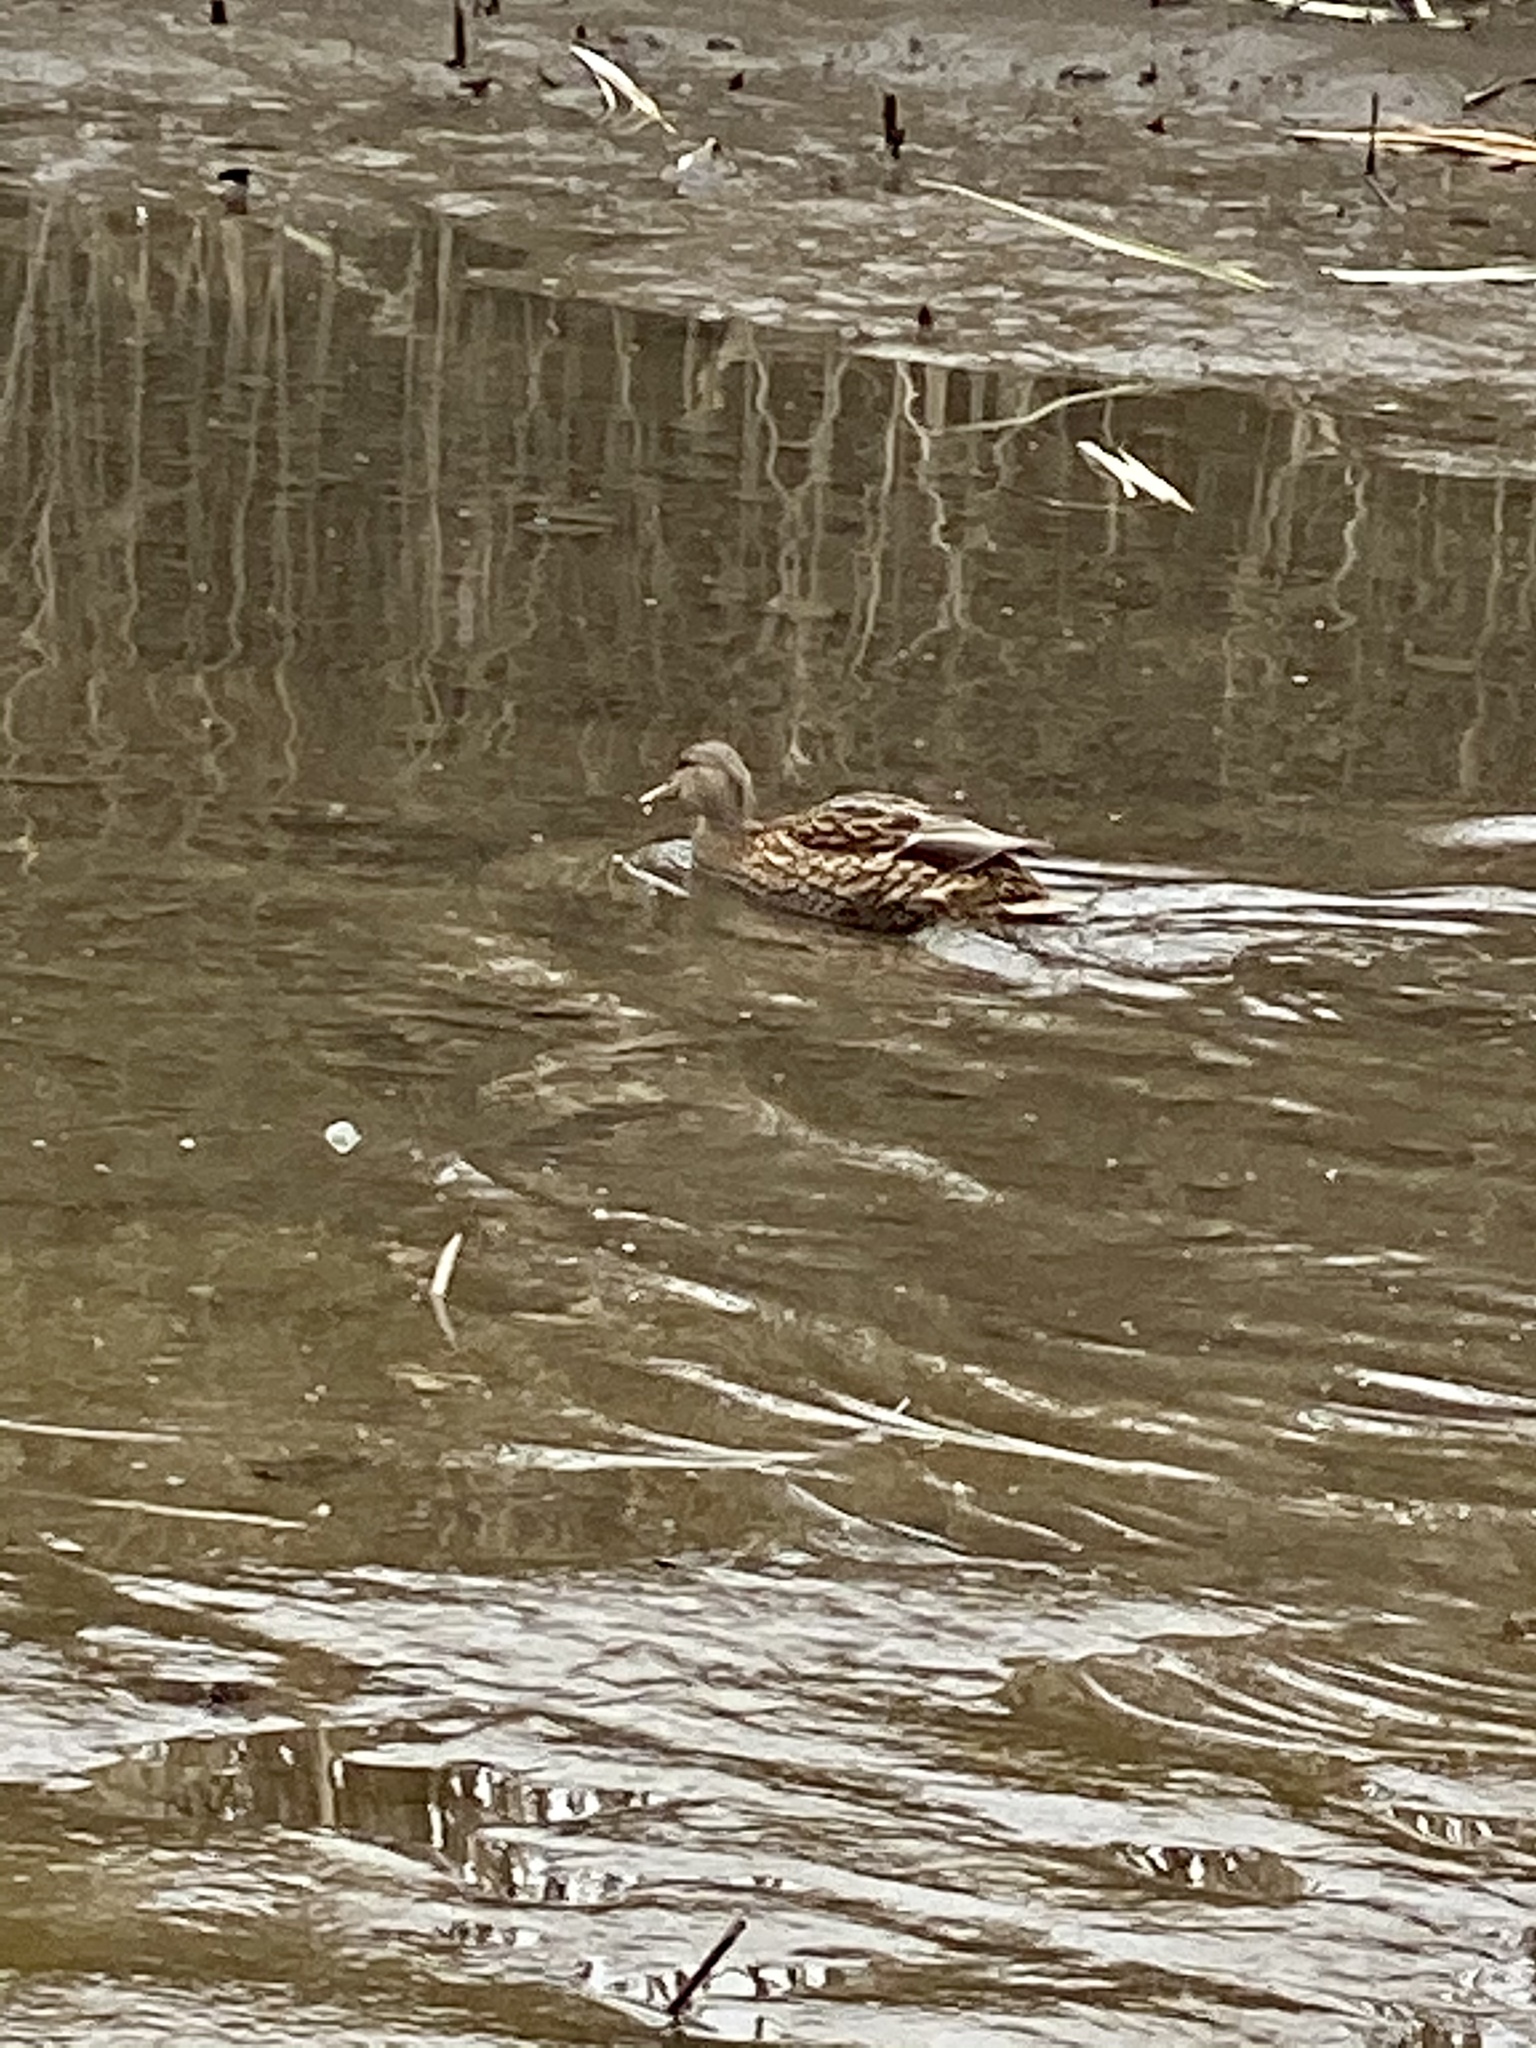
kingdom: Animalia
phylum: Chordata
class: Aves
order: Anseriformes
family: Anatidae
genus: Anas
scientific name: Anas platyrhynchos
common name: Mallard
